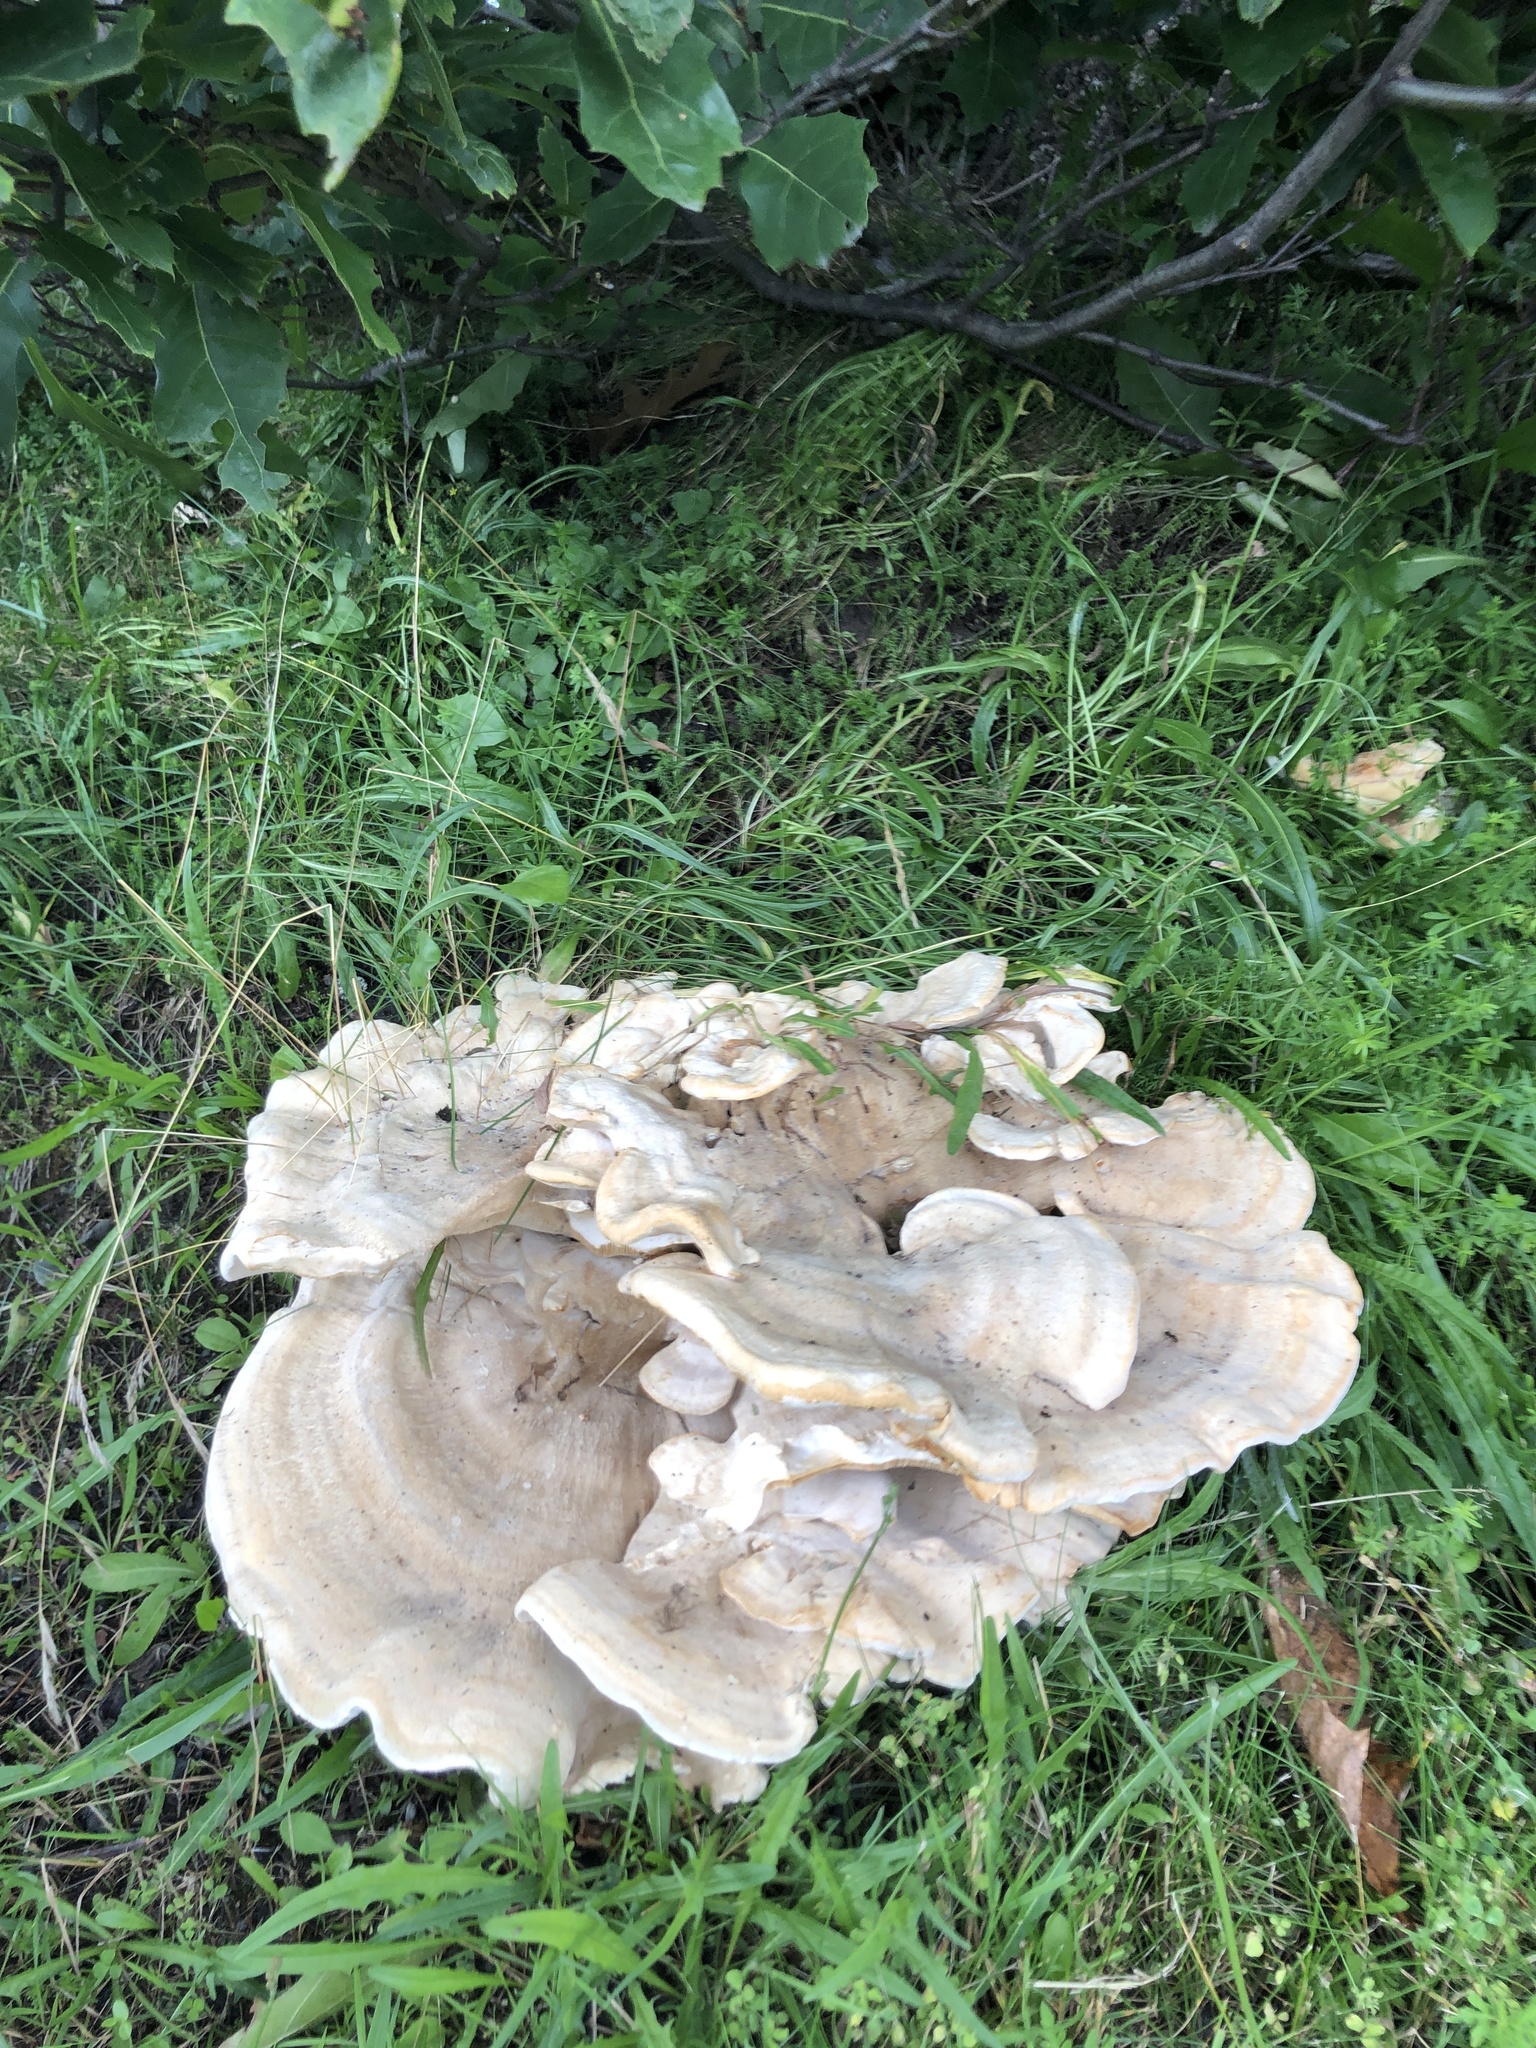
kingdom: Fungi
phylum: Basidiomycota
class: Agaricomycetes
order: Russulales
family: Bondarzewiaceae
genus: Bondarzewia
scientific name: Bondarzewia berkeleyi
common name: Berkeley's polypore
